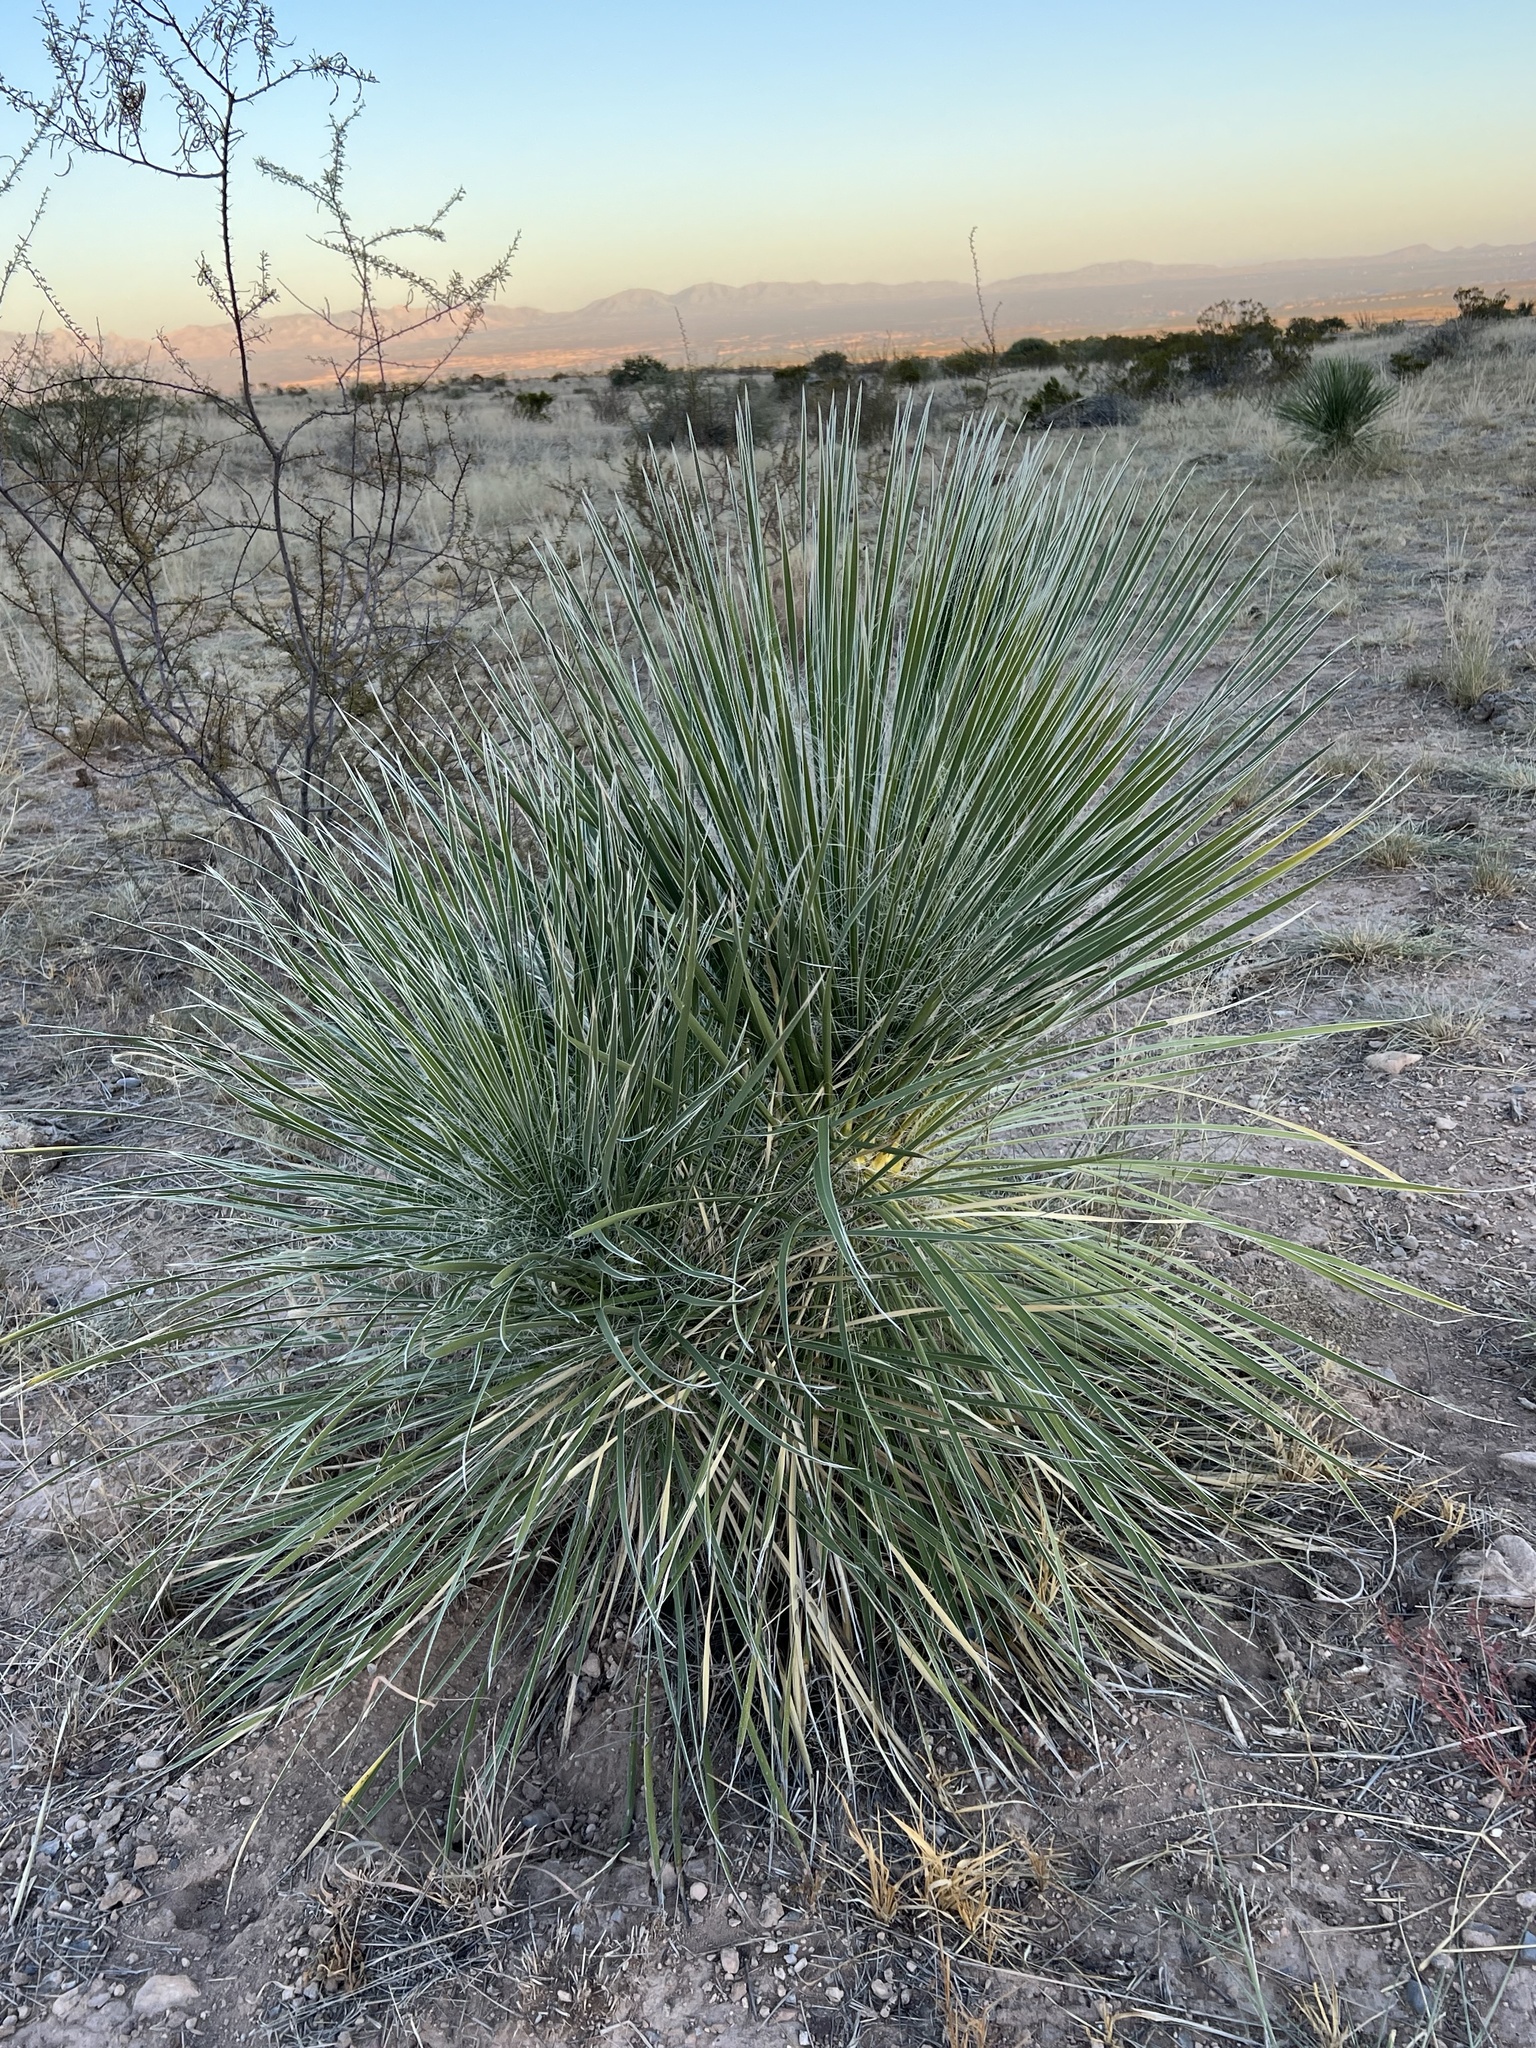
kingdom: Plantae
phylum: Tracheophyta
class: Liliopsida
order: Asparagales
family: Asparagaceae
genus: Yucca
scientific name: Yucca elata
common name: Palmella
